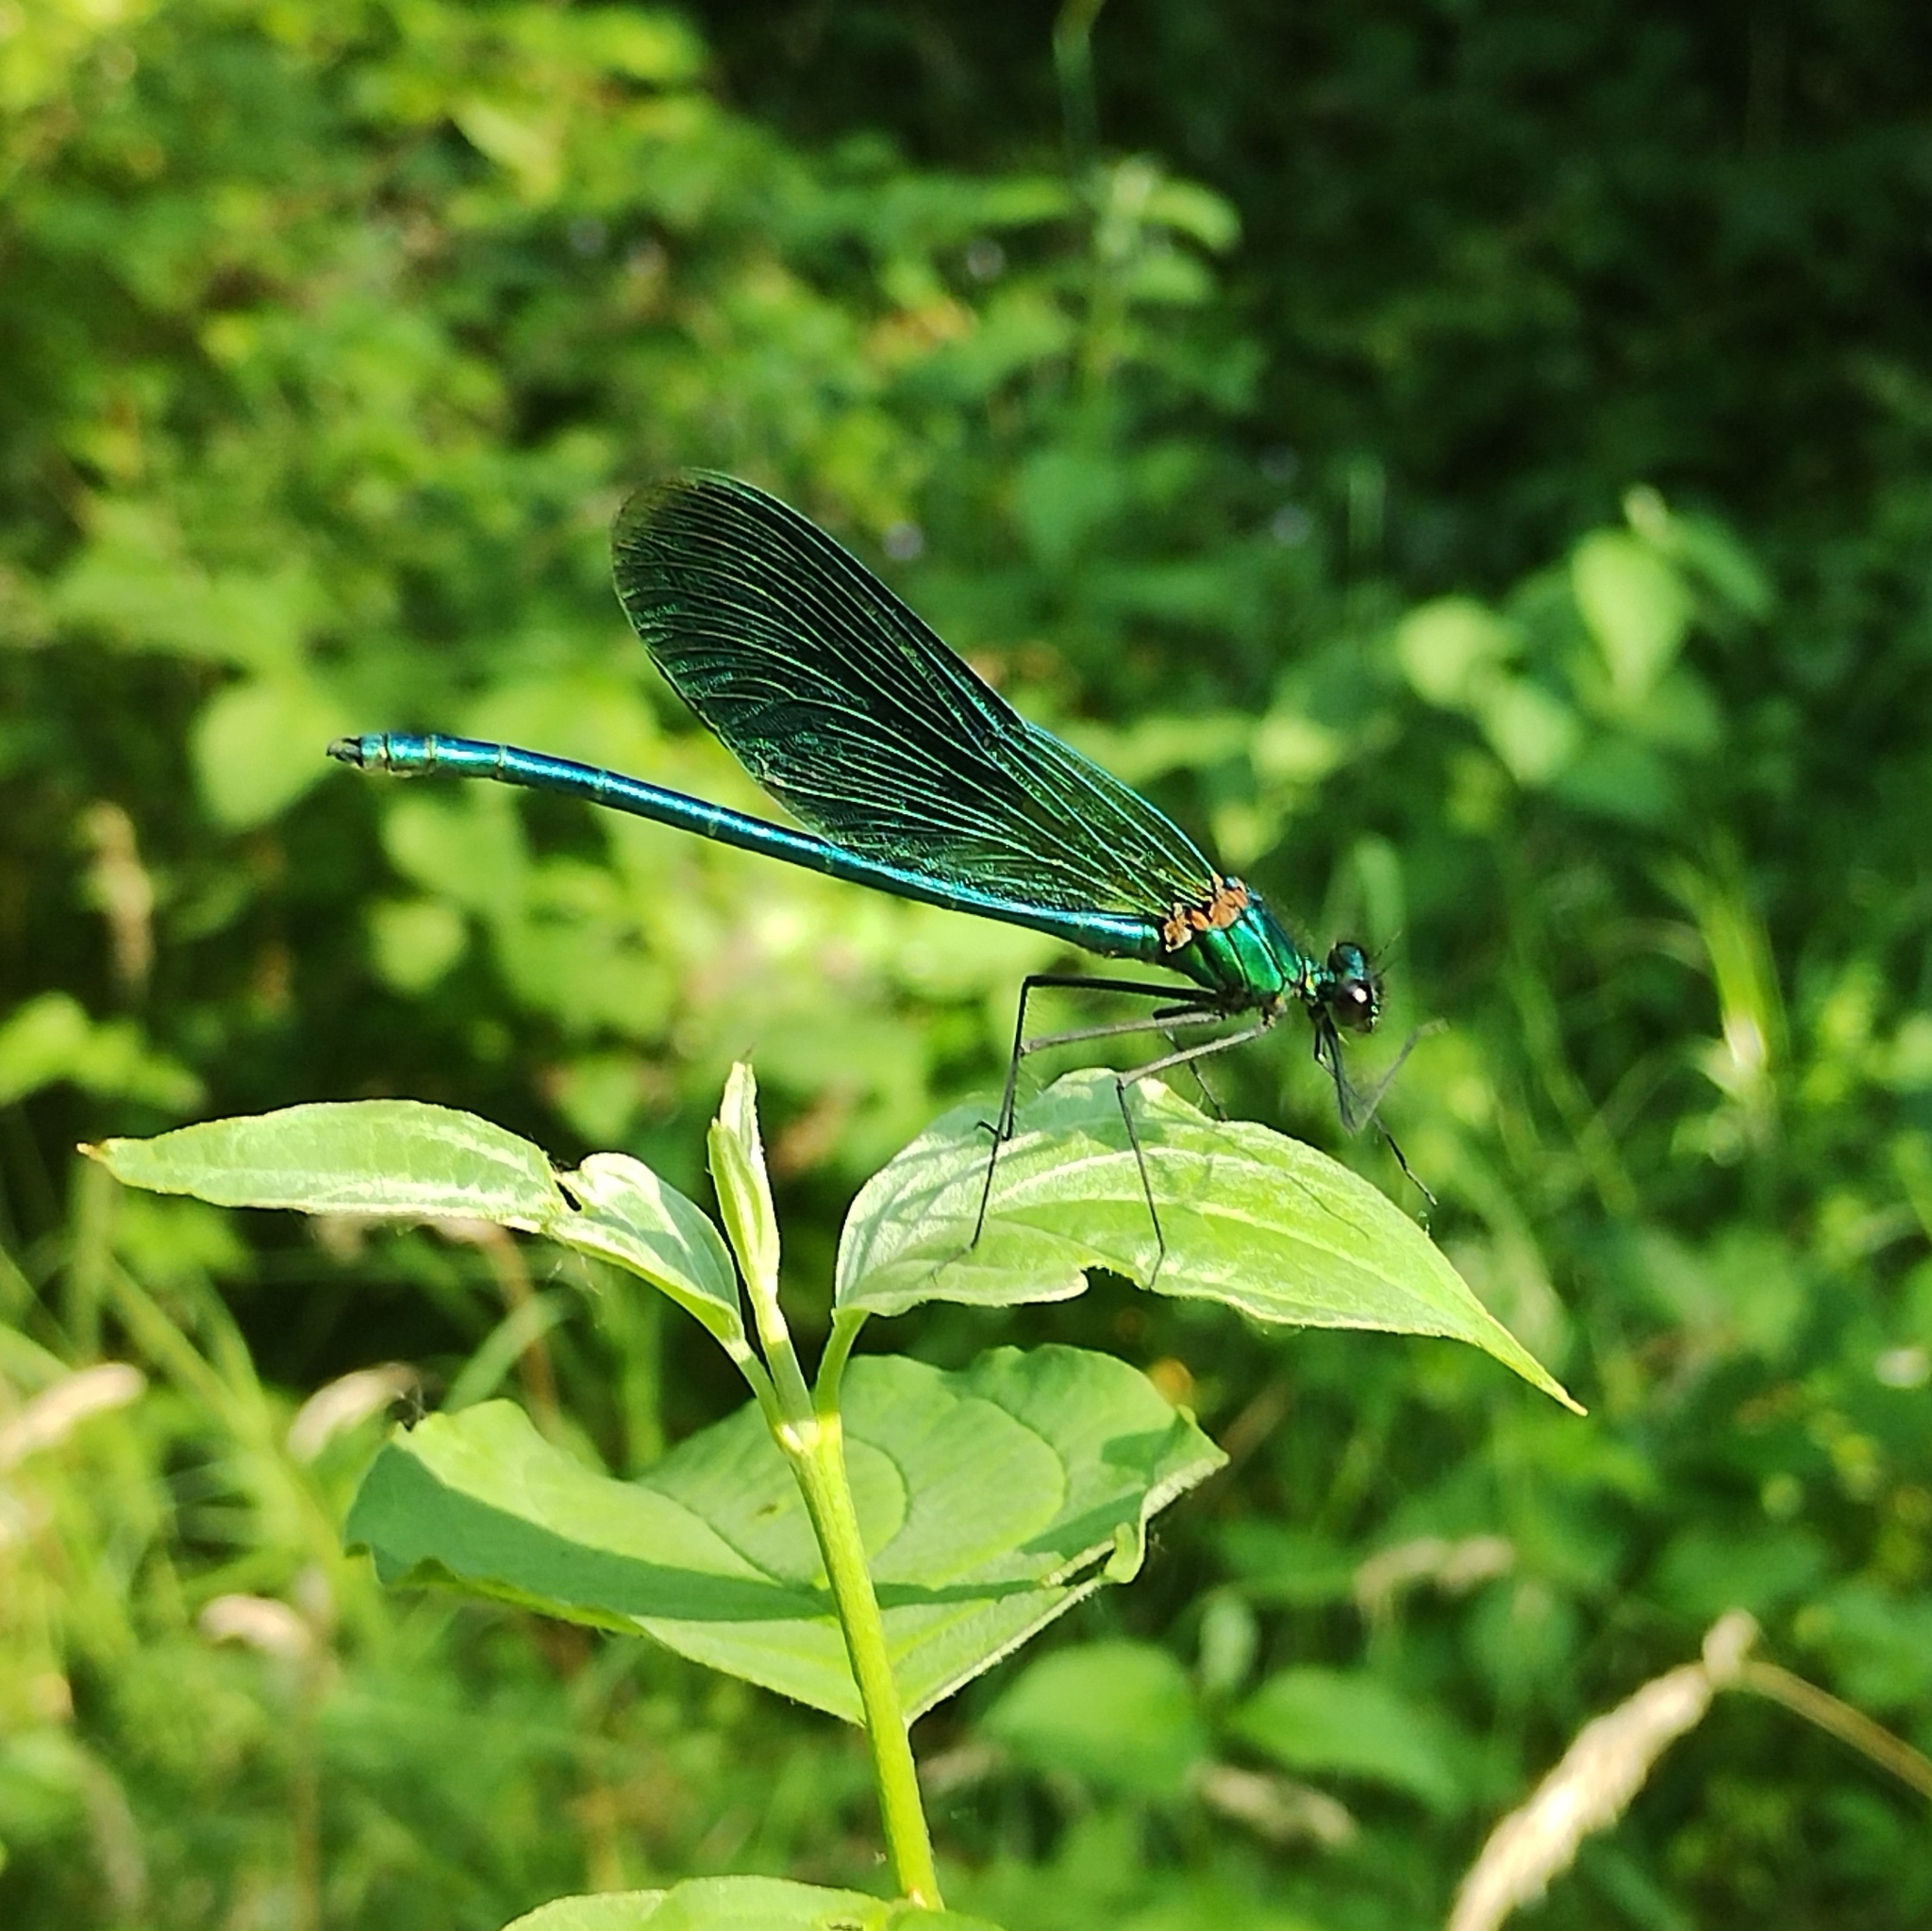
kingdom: Animalia
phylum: Arthropoda
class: Insecta
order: Odonata
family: Calopterygidae
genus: Calopteryx
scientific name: Calopteryx splendens
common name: Banded demoiselle
